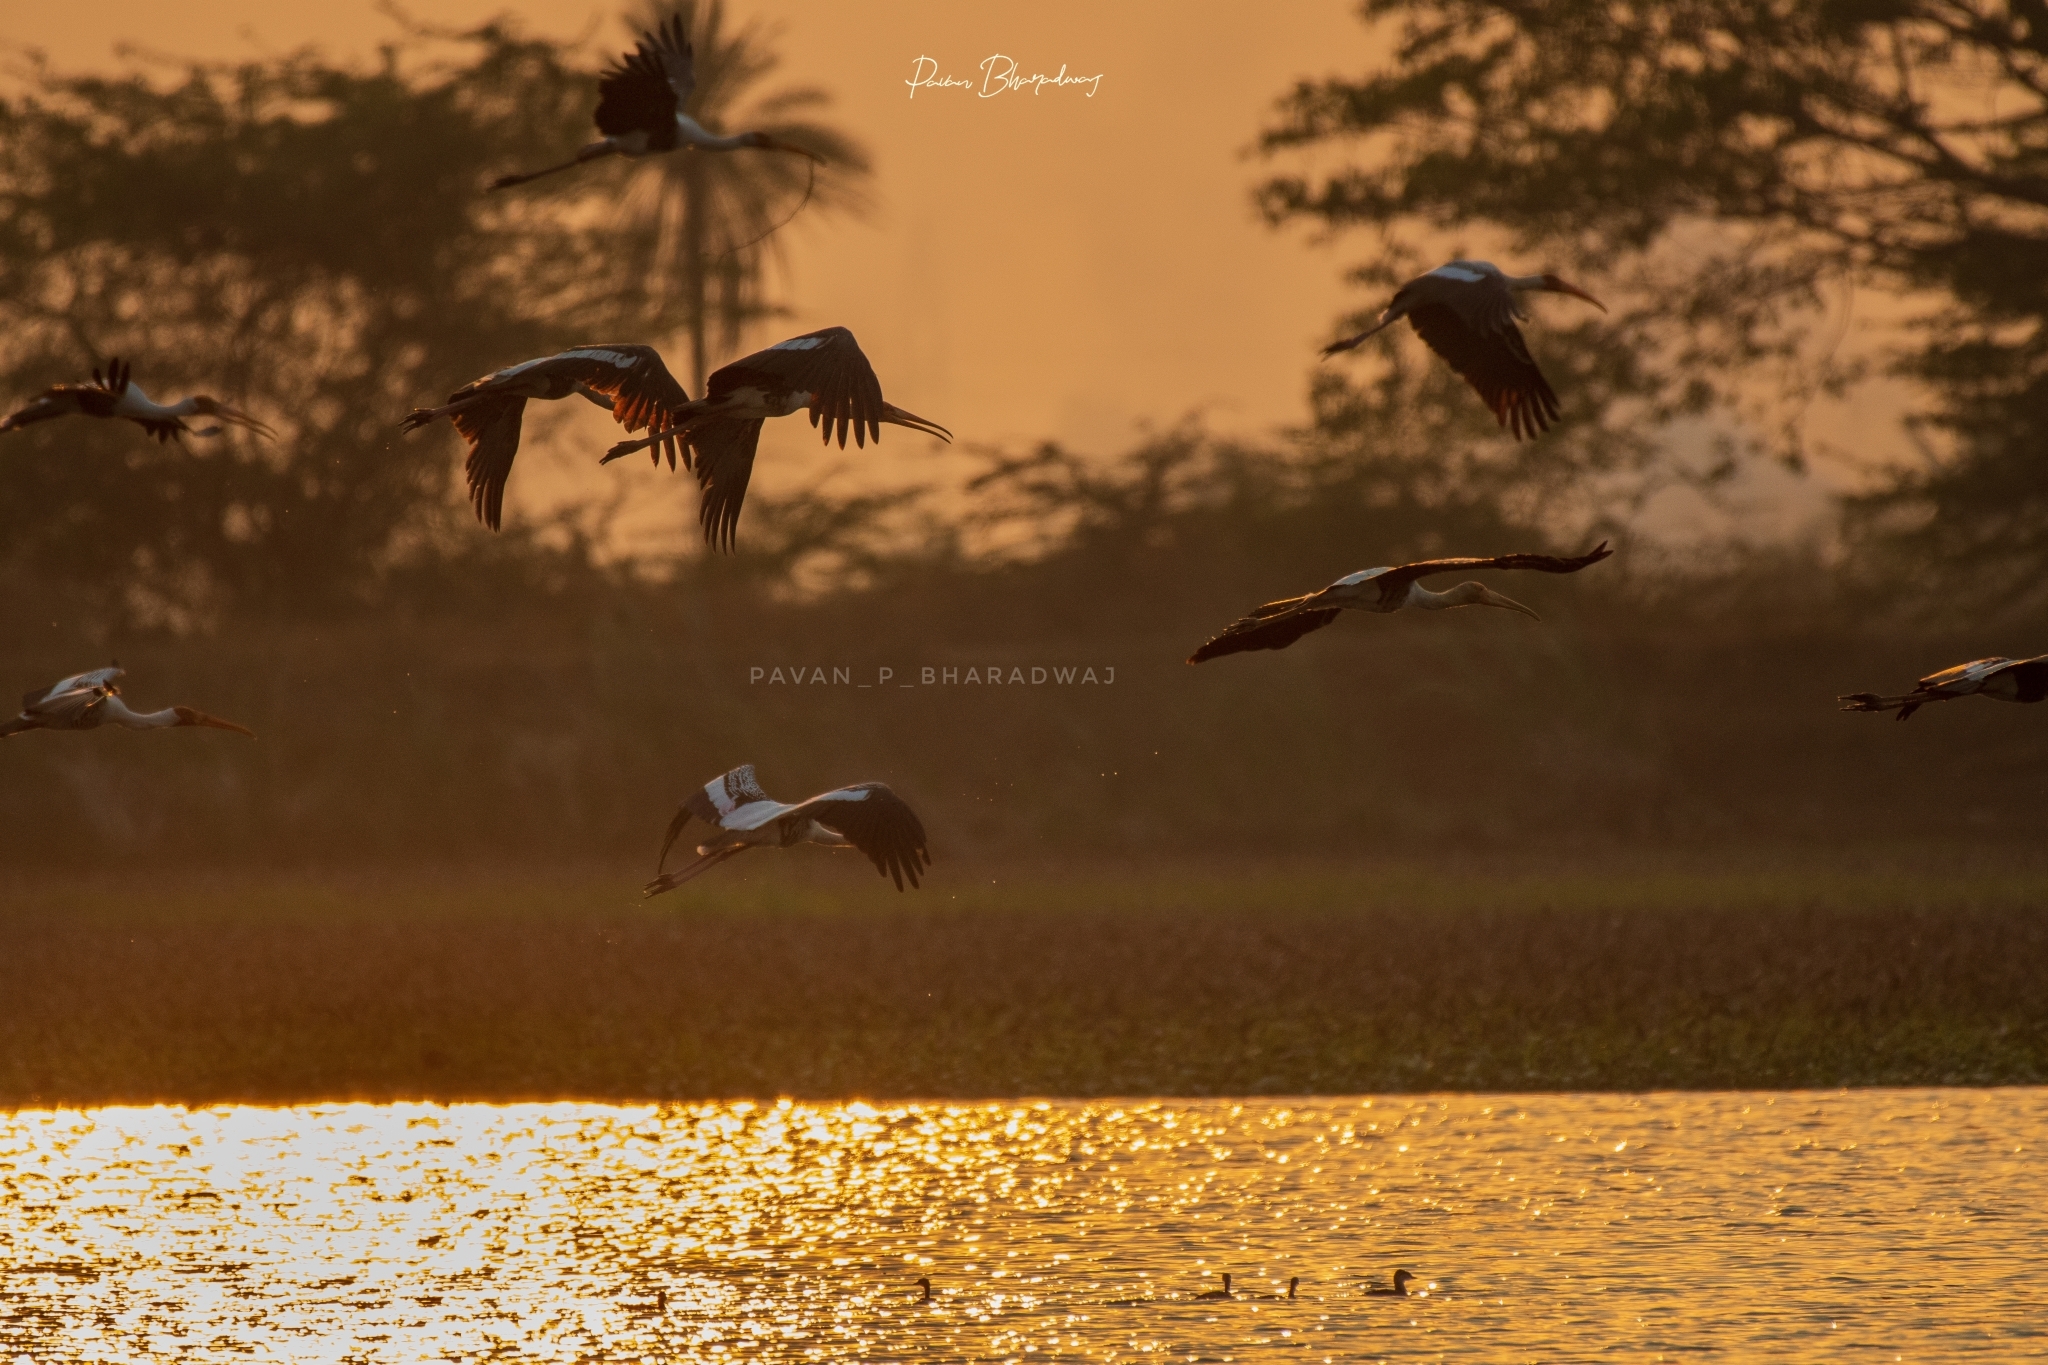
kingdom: Animalia
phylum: Chordata
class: Aves
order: Ciconiiformes
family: Ciconiidae
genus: Mycteria
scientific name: Mycteria leucocephala
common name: Painted stork
